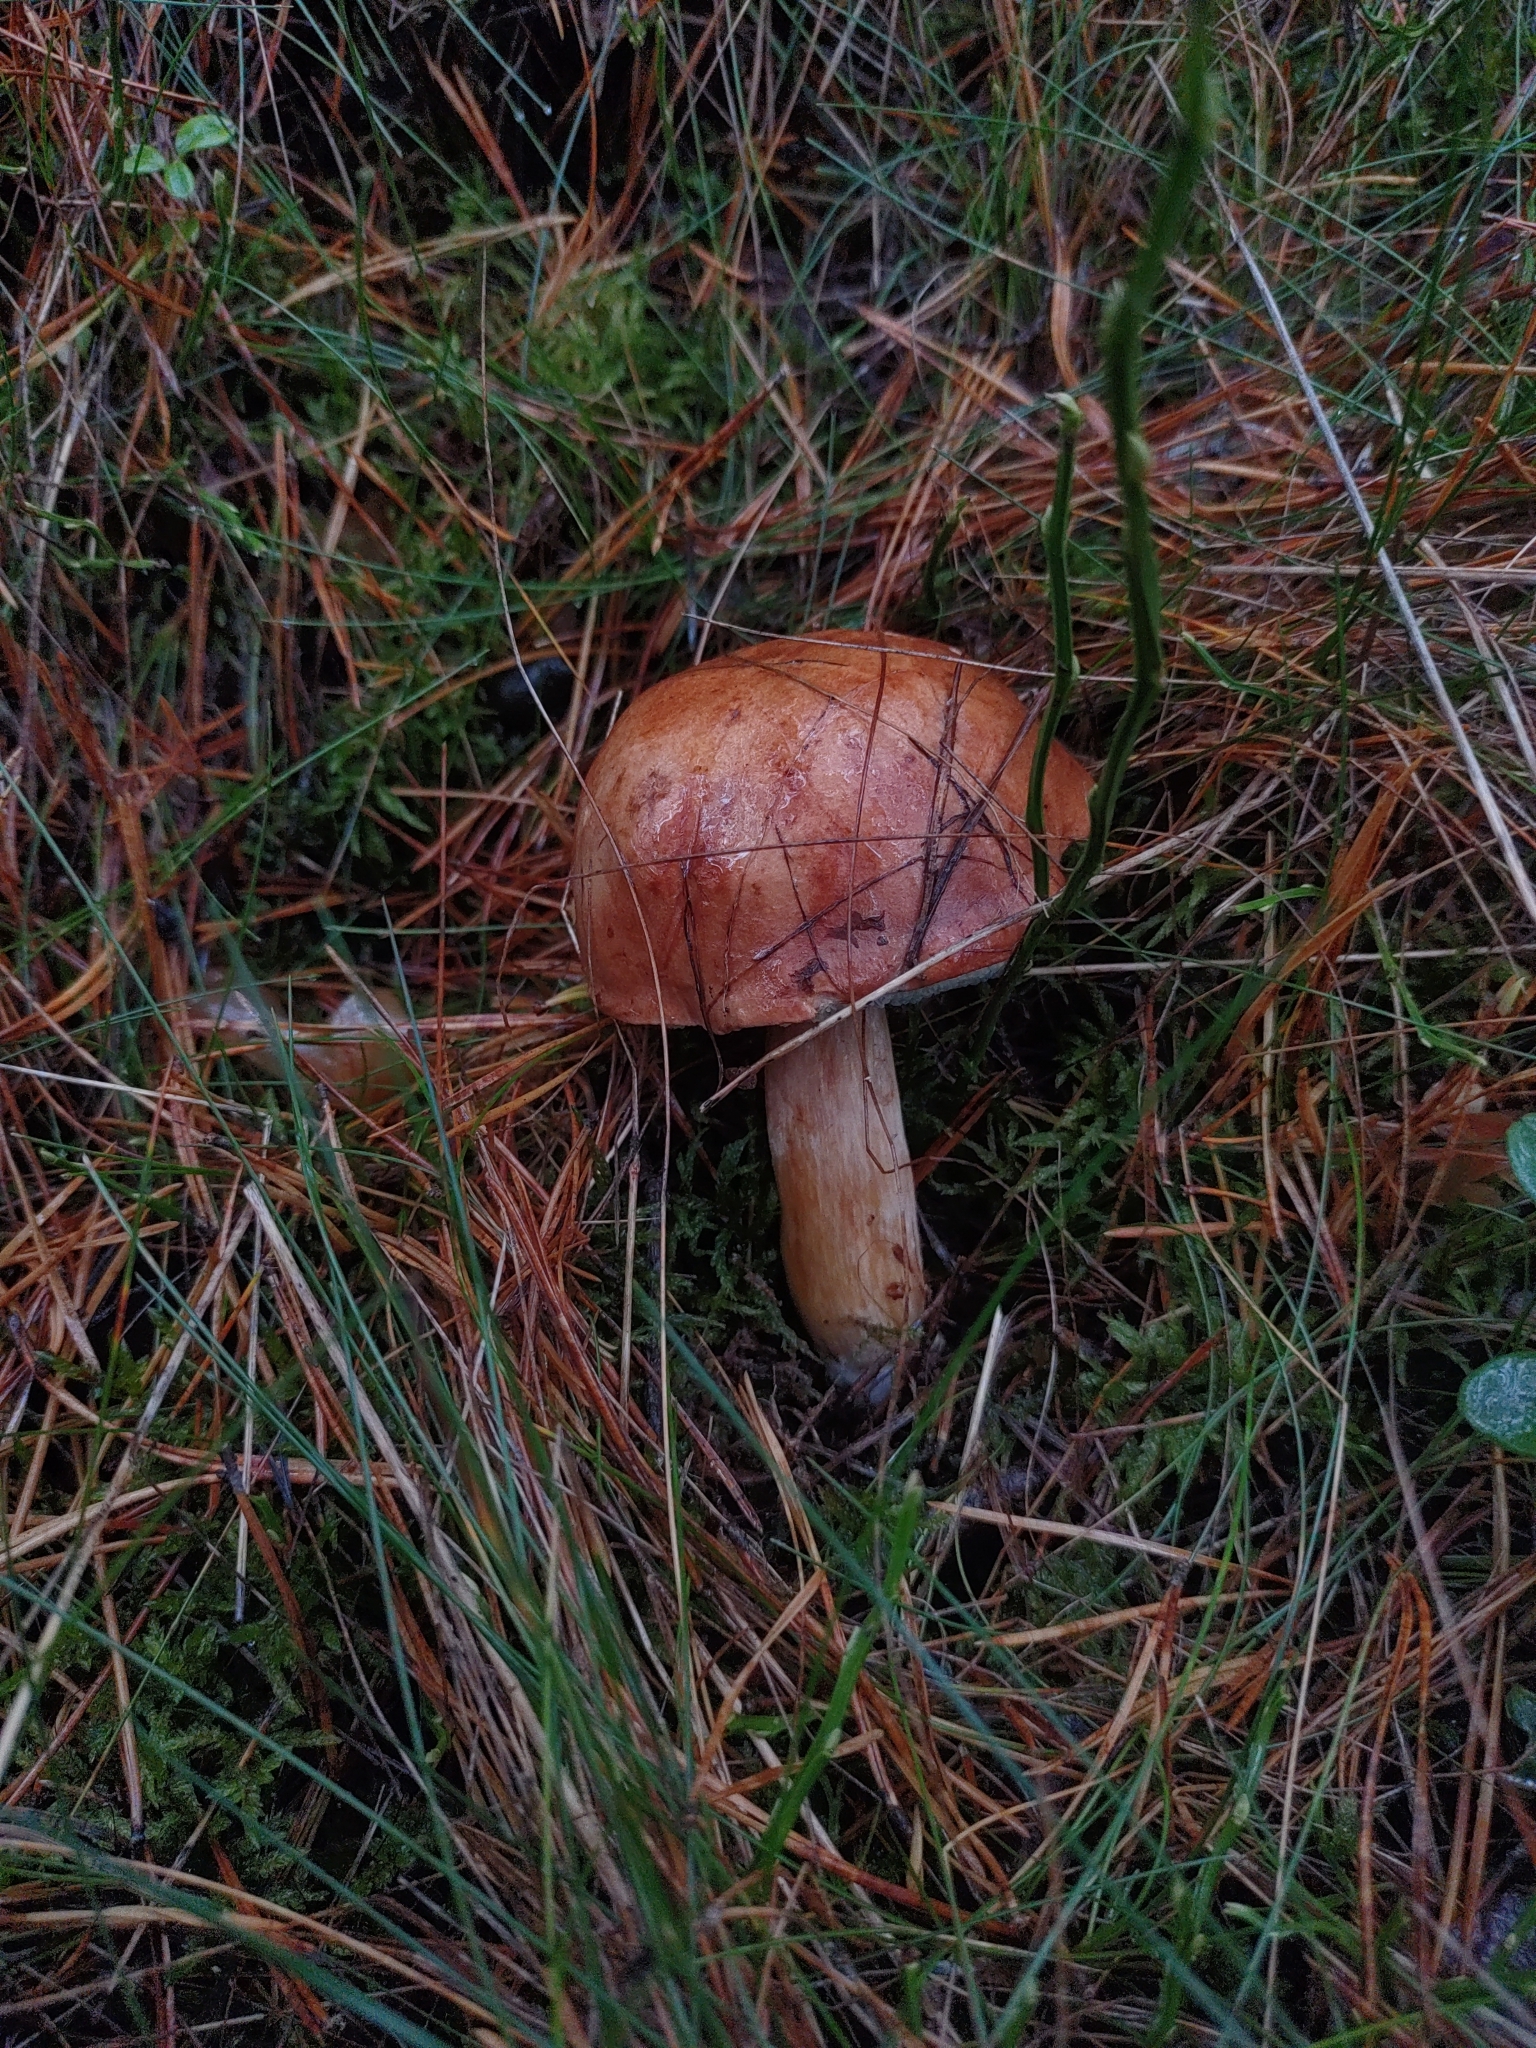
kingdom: Fungi
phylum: Basidiomycota
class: Agaricomycetes
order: Boletales
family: Boletaceae
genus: Imleria
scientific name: Imleria badia
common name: Bay bolete
